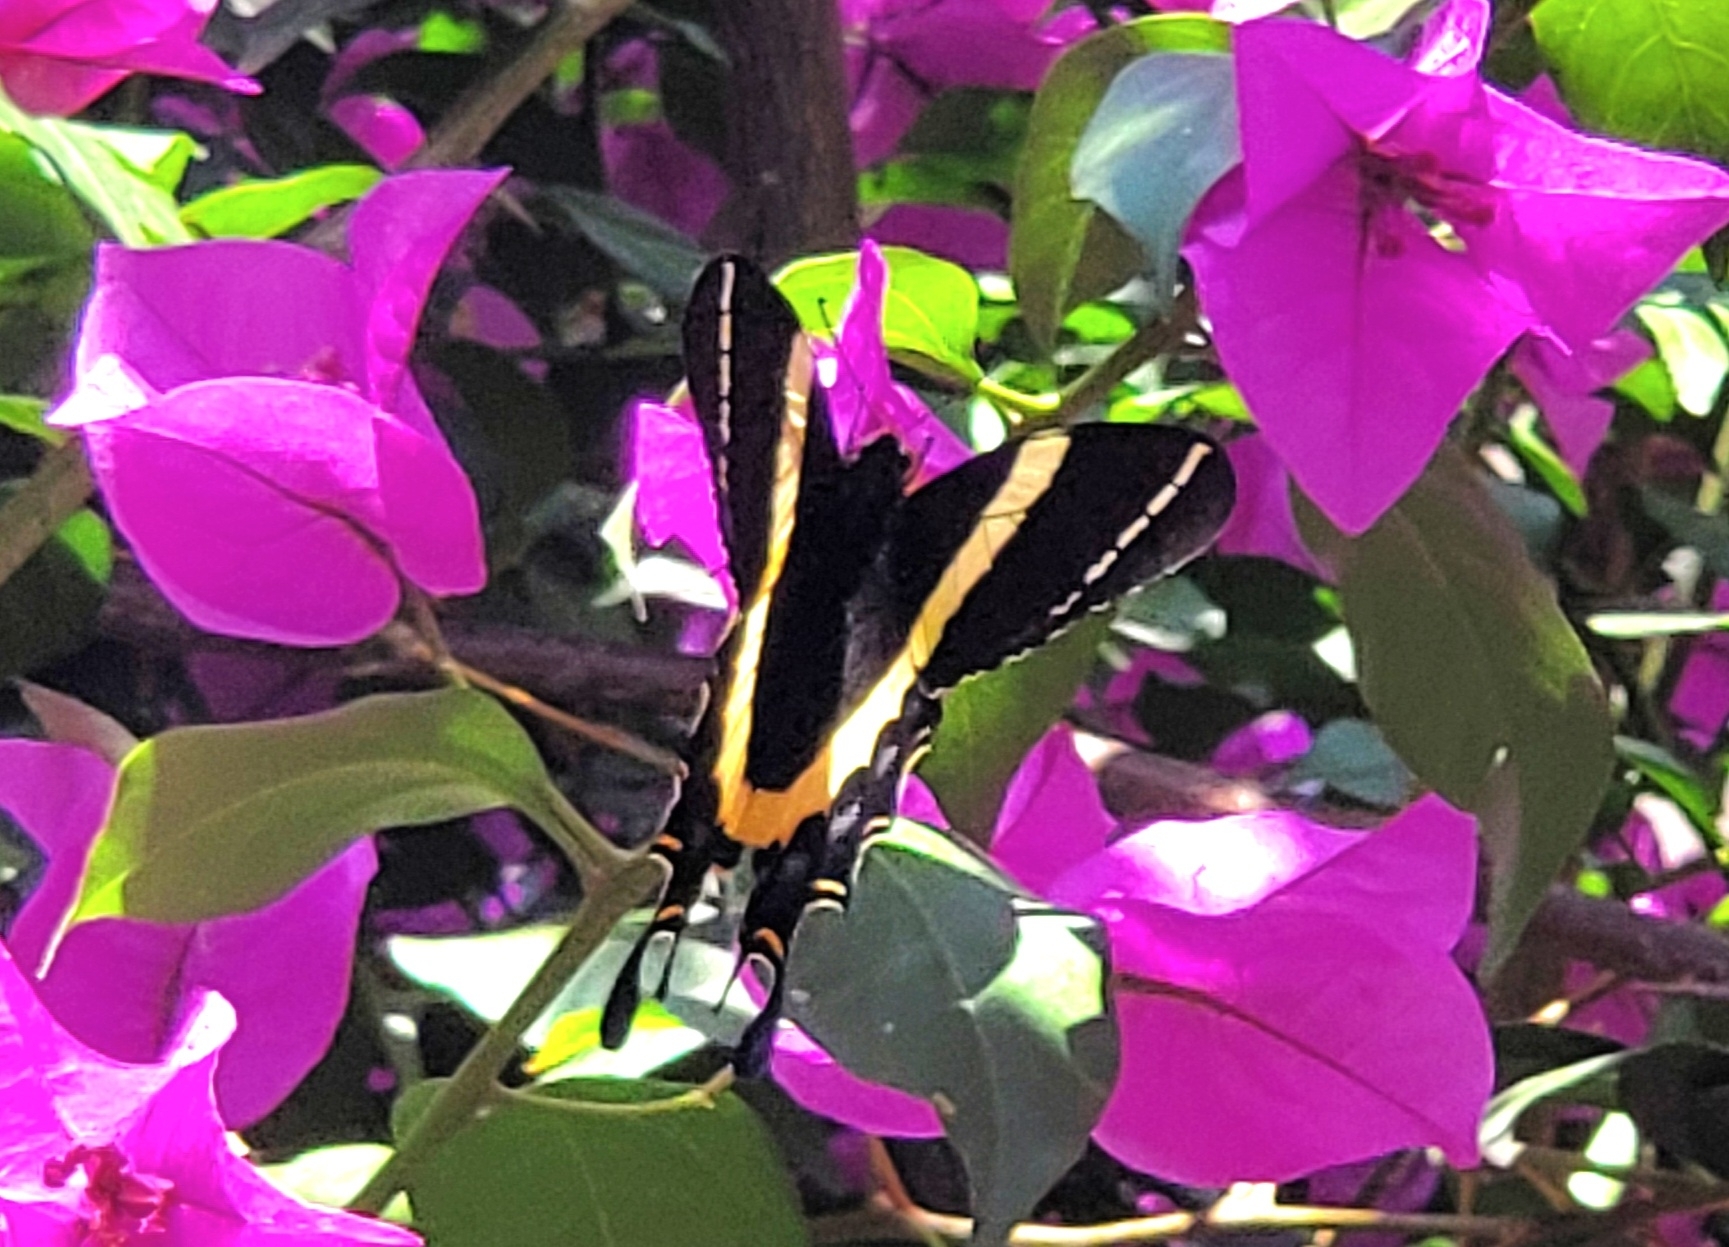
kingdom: Animalia
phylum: Arthropoda
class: Insecta
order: Lepidoptera
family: Papilionidae
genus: Papilio
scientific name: Papilio garamas
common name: Magnificent swallowtail
